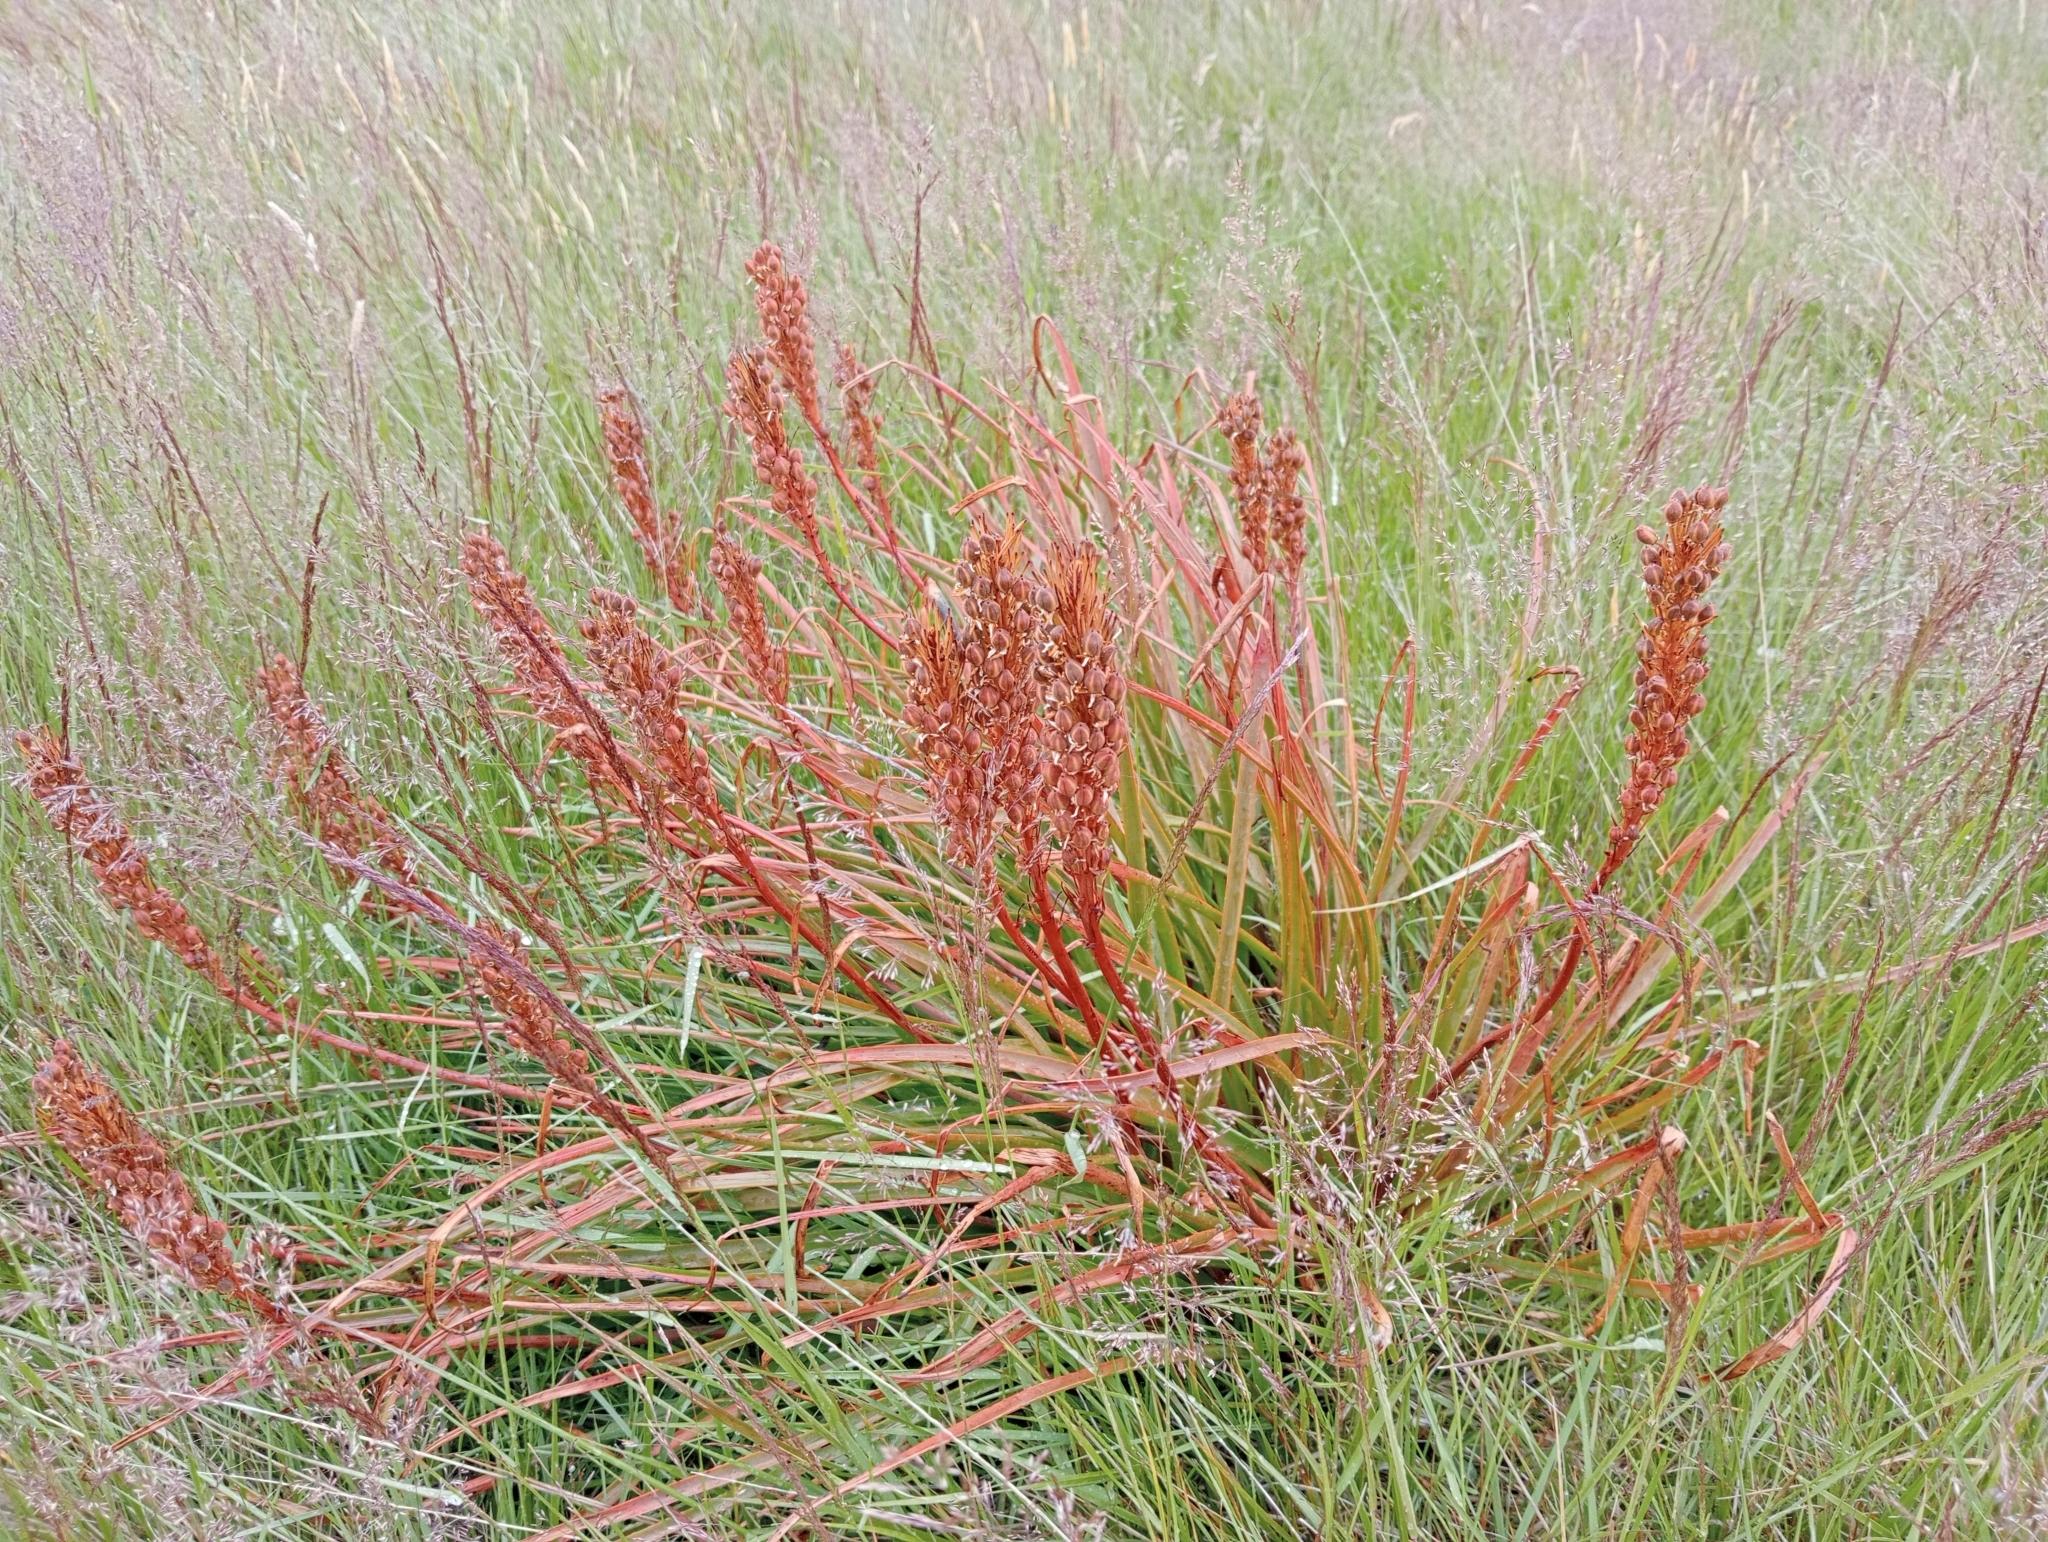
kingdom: Plantae
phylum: Tracheophyta
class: Liliopsida
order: Asparagales
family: Asphodelaceae
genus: Bulbinella
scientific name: Bulbinella angustifolia
